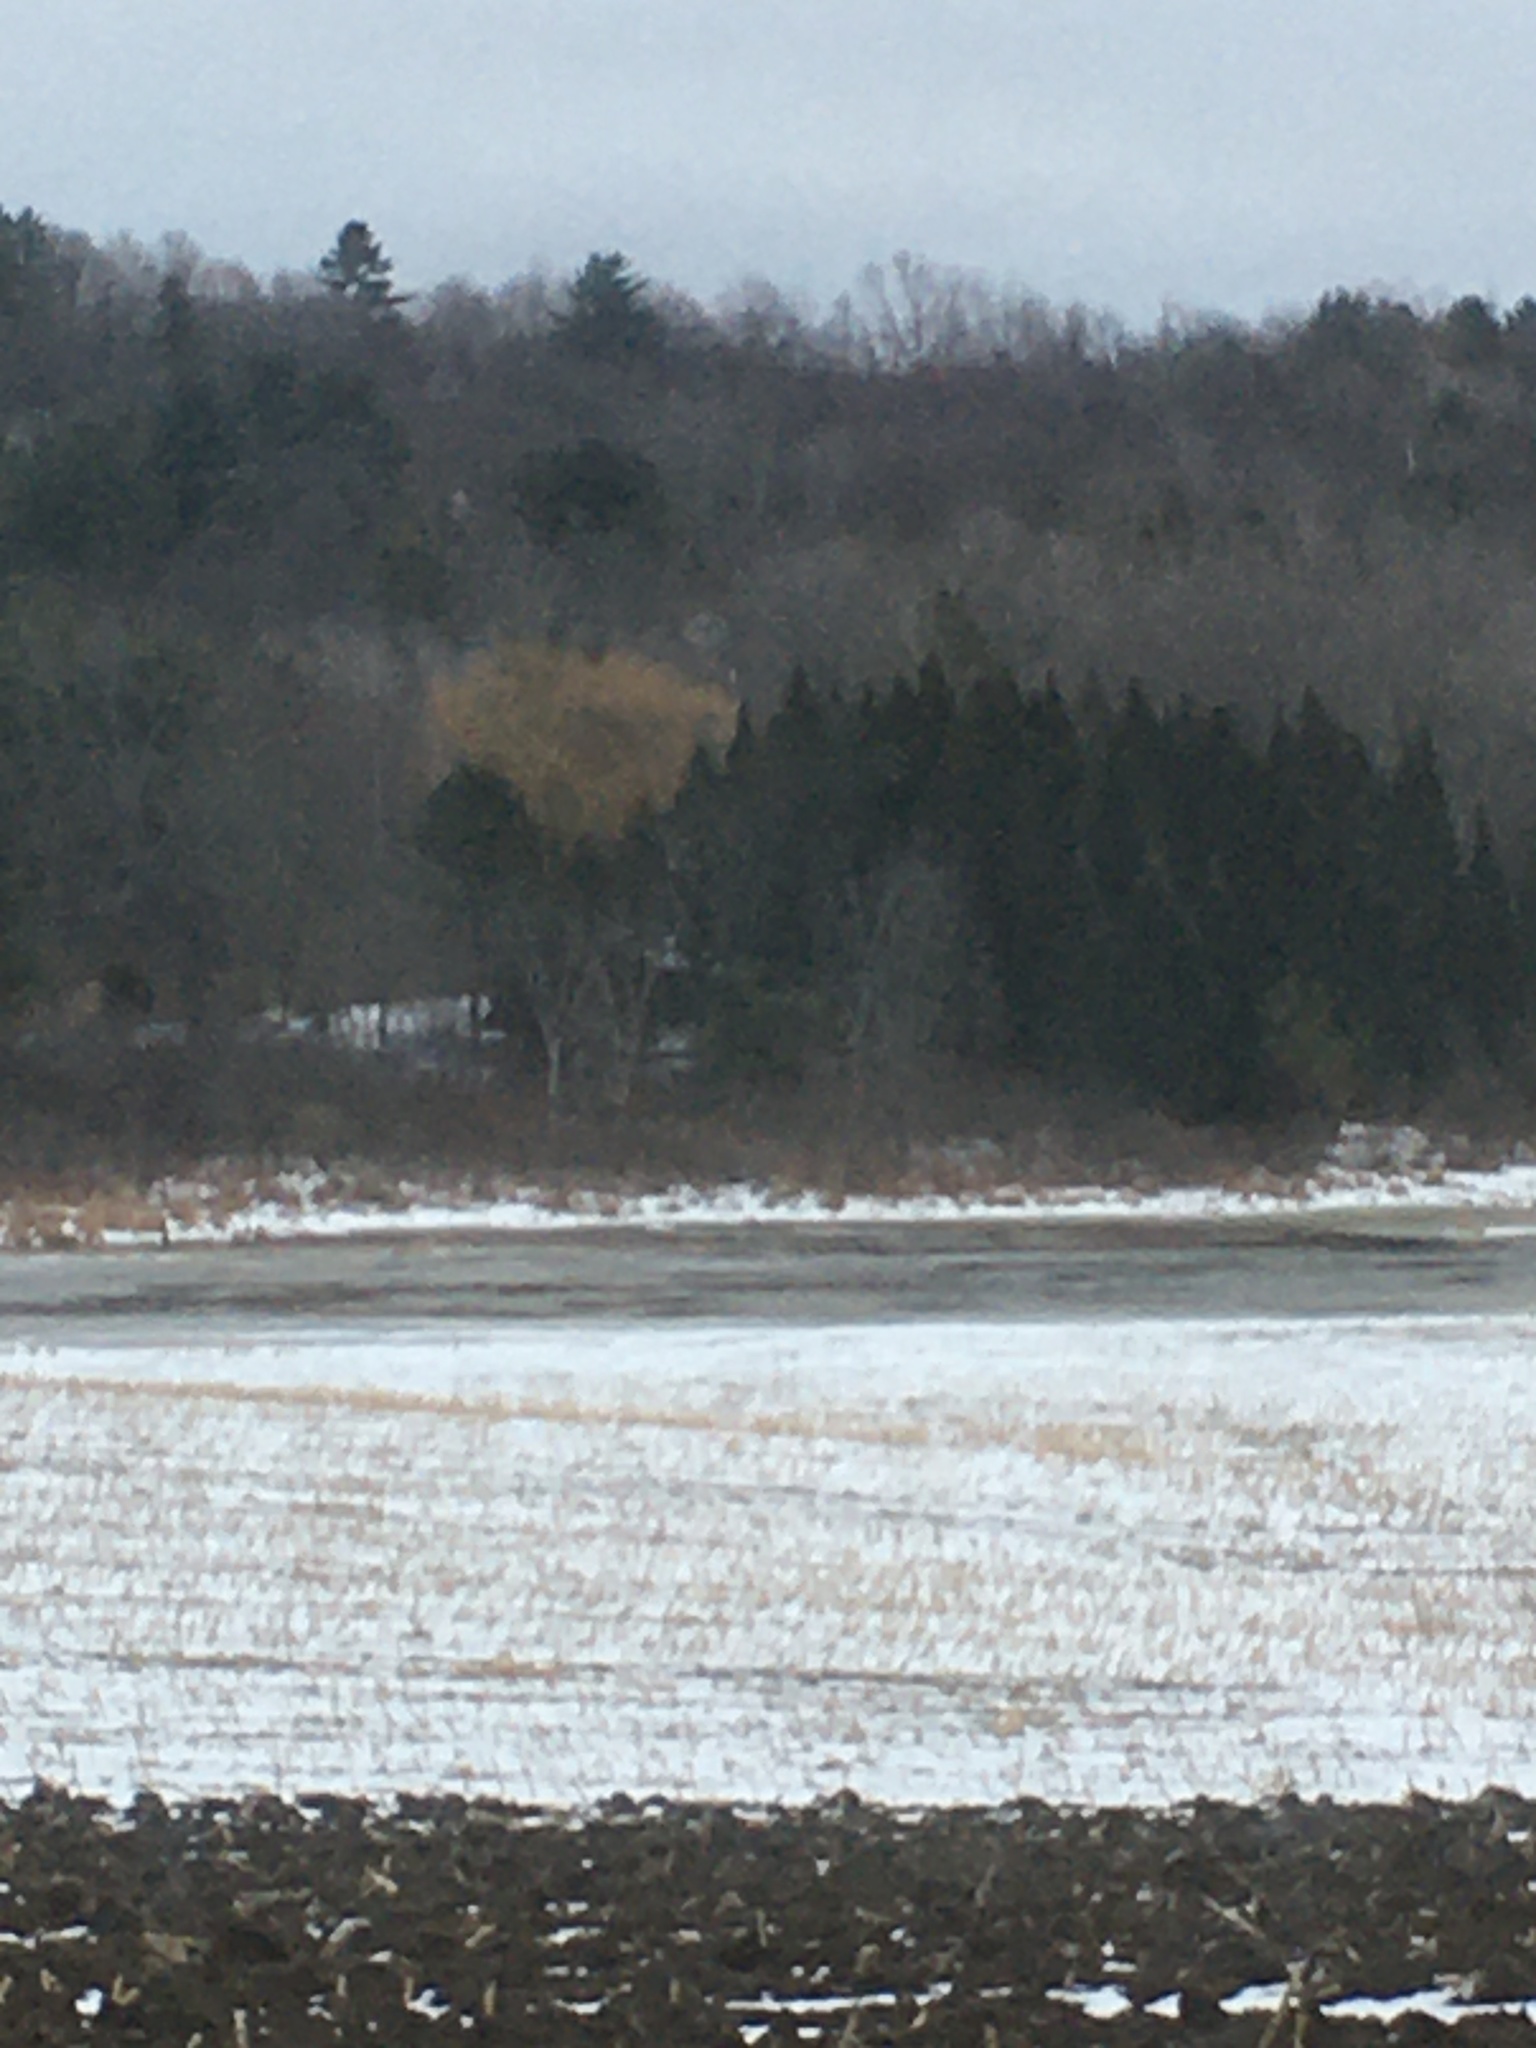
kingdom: Plantae
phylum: Tracheophyta
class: Pinopsida
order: Pinales
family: Pinaceae
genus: Tsuga
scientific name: Tsuga canadensis
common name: Eastern hemlock
